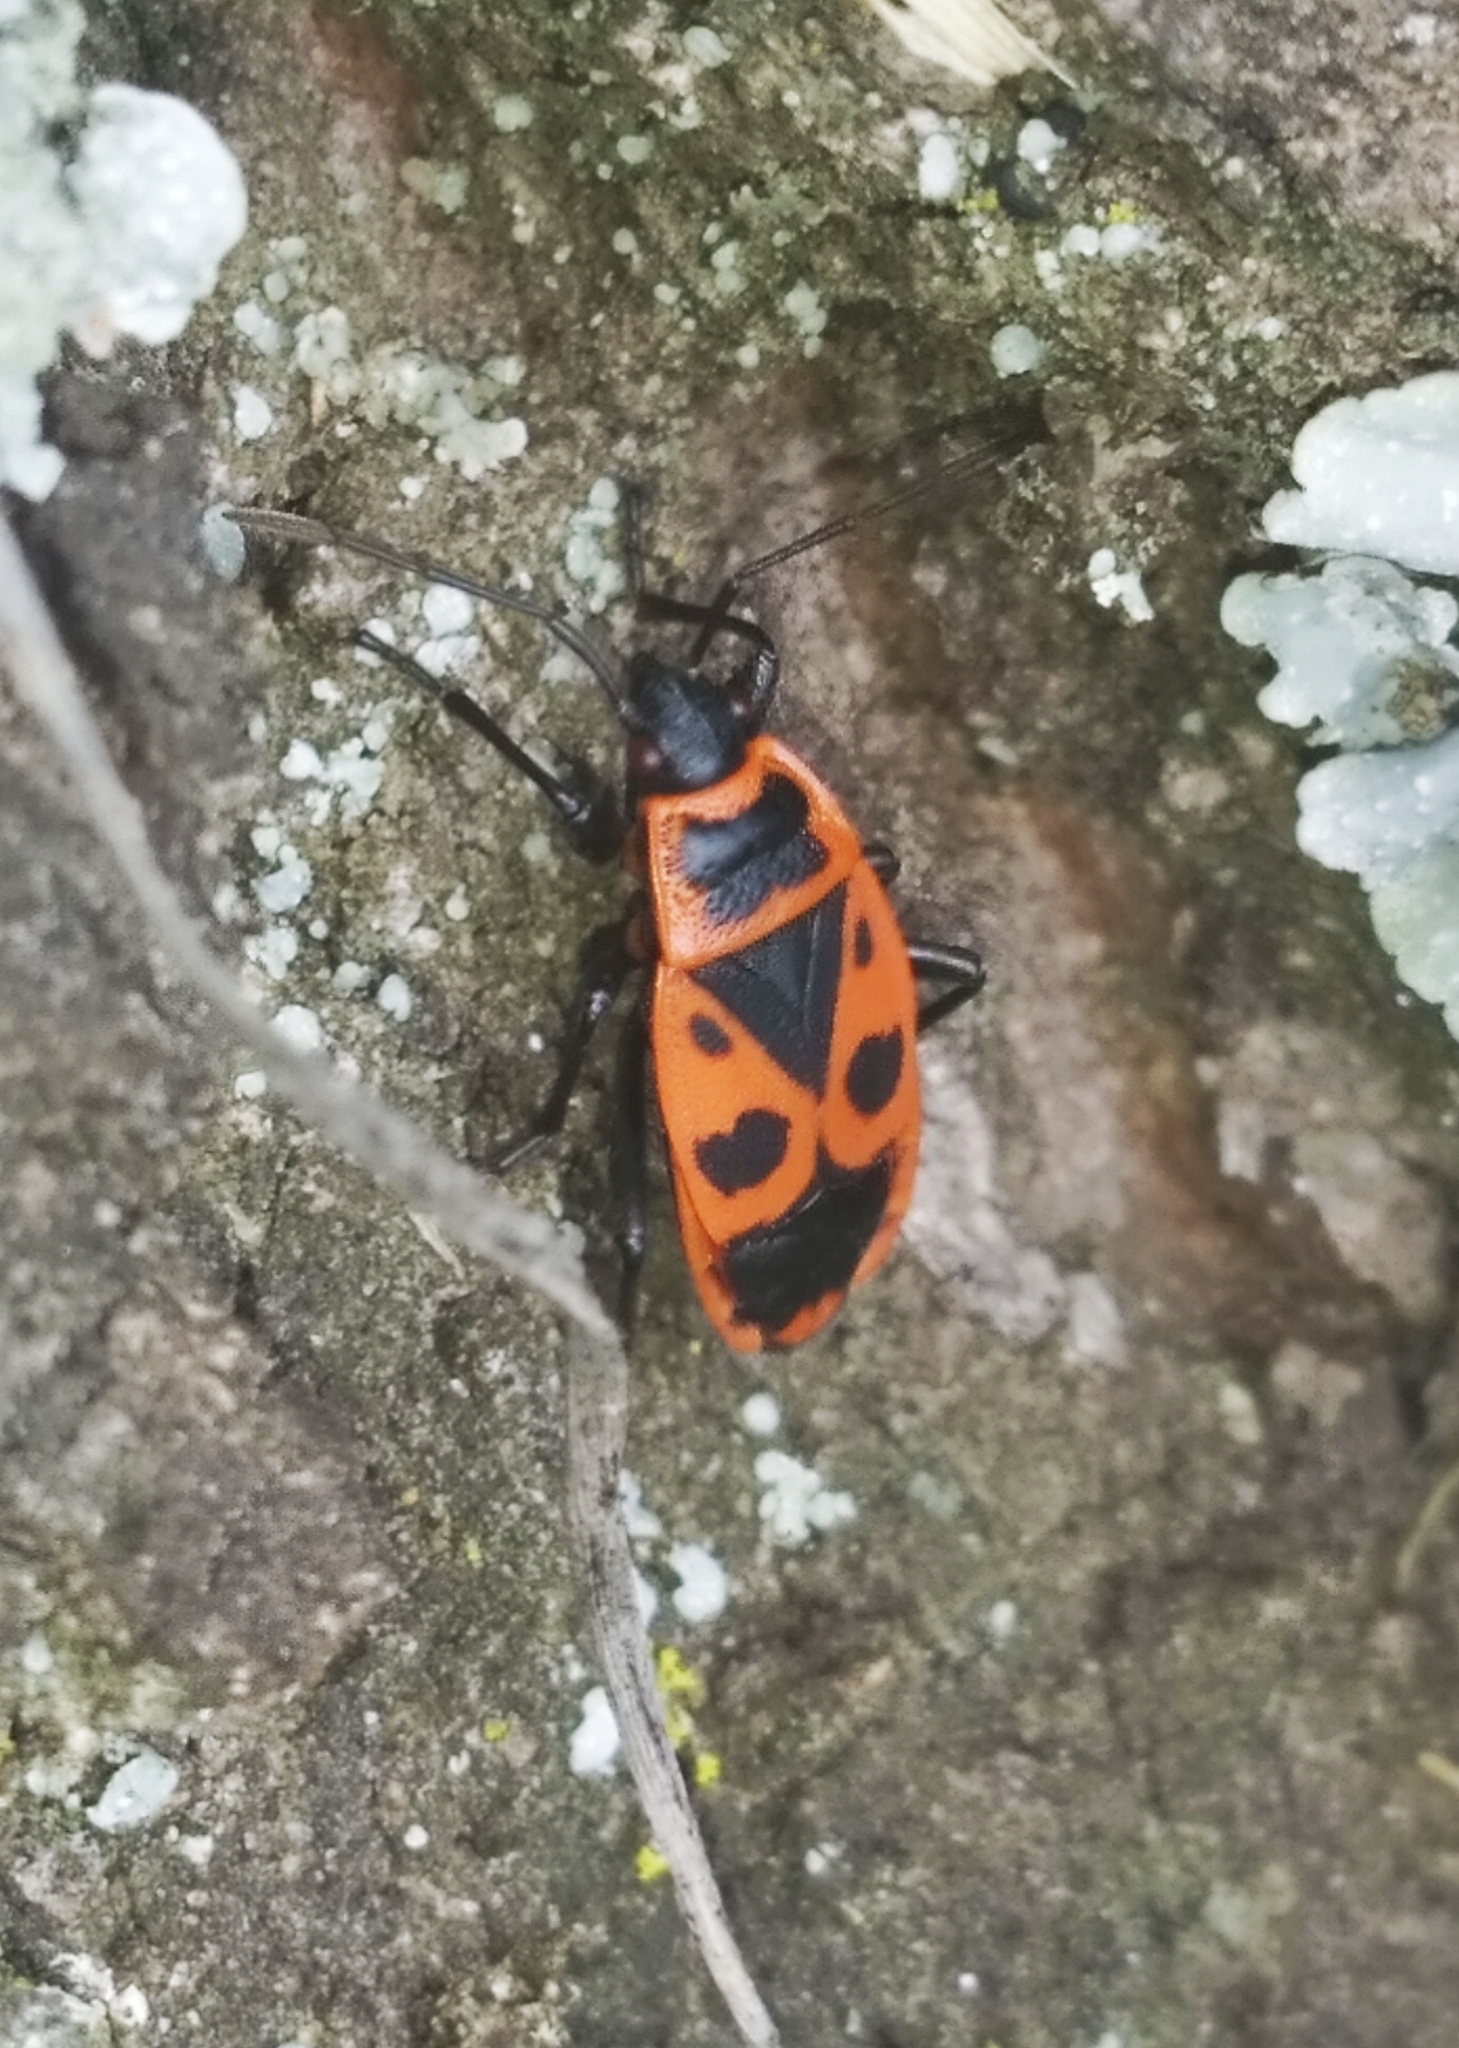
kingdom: Animalia
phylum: Arthropoda
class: Insecta
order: Hemiptera
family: Pyrrhocoridae
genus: Pyrrhocoris
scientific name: Pyrrhocoris apterus
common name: Firebug
